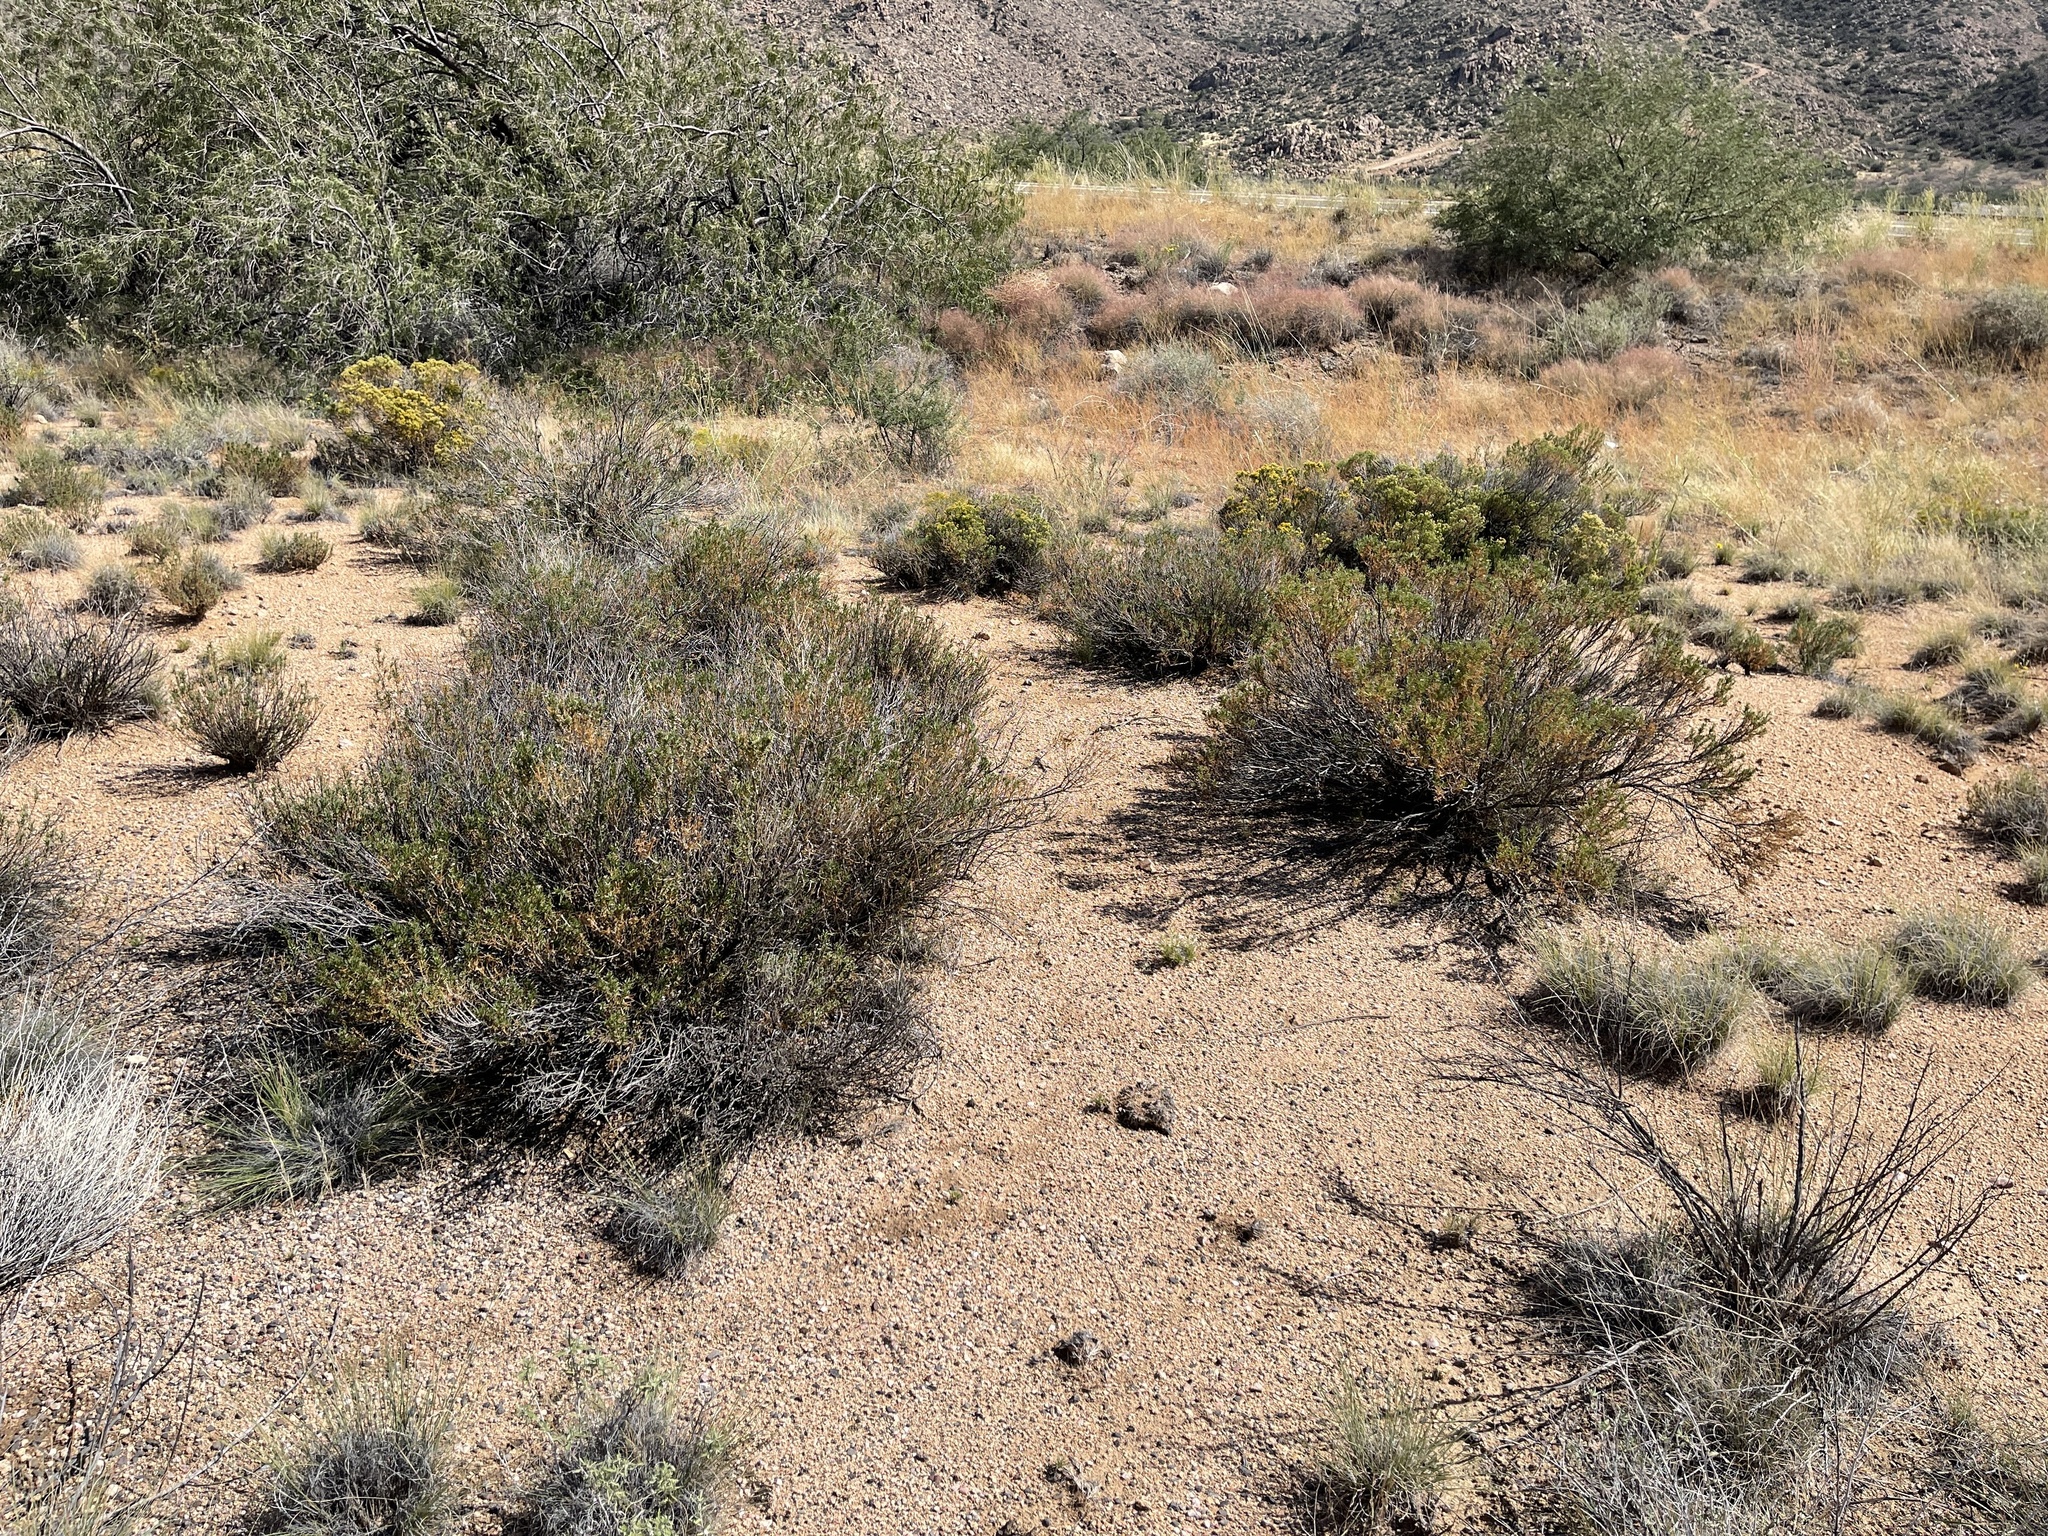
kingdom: Plantae
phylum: Tracheophyta
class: Magnoliopsida
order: Asterales
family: Asteraceae
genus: Ericameria
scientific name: Ericameria linearifolia
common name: Interior goldenbush
